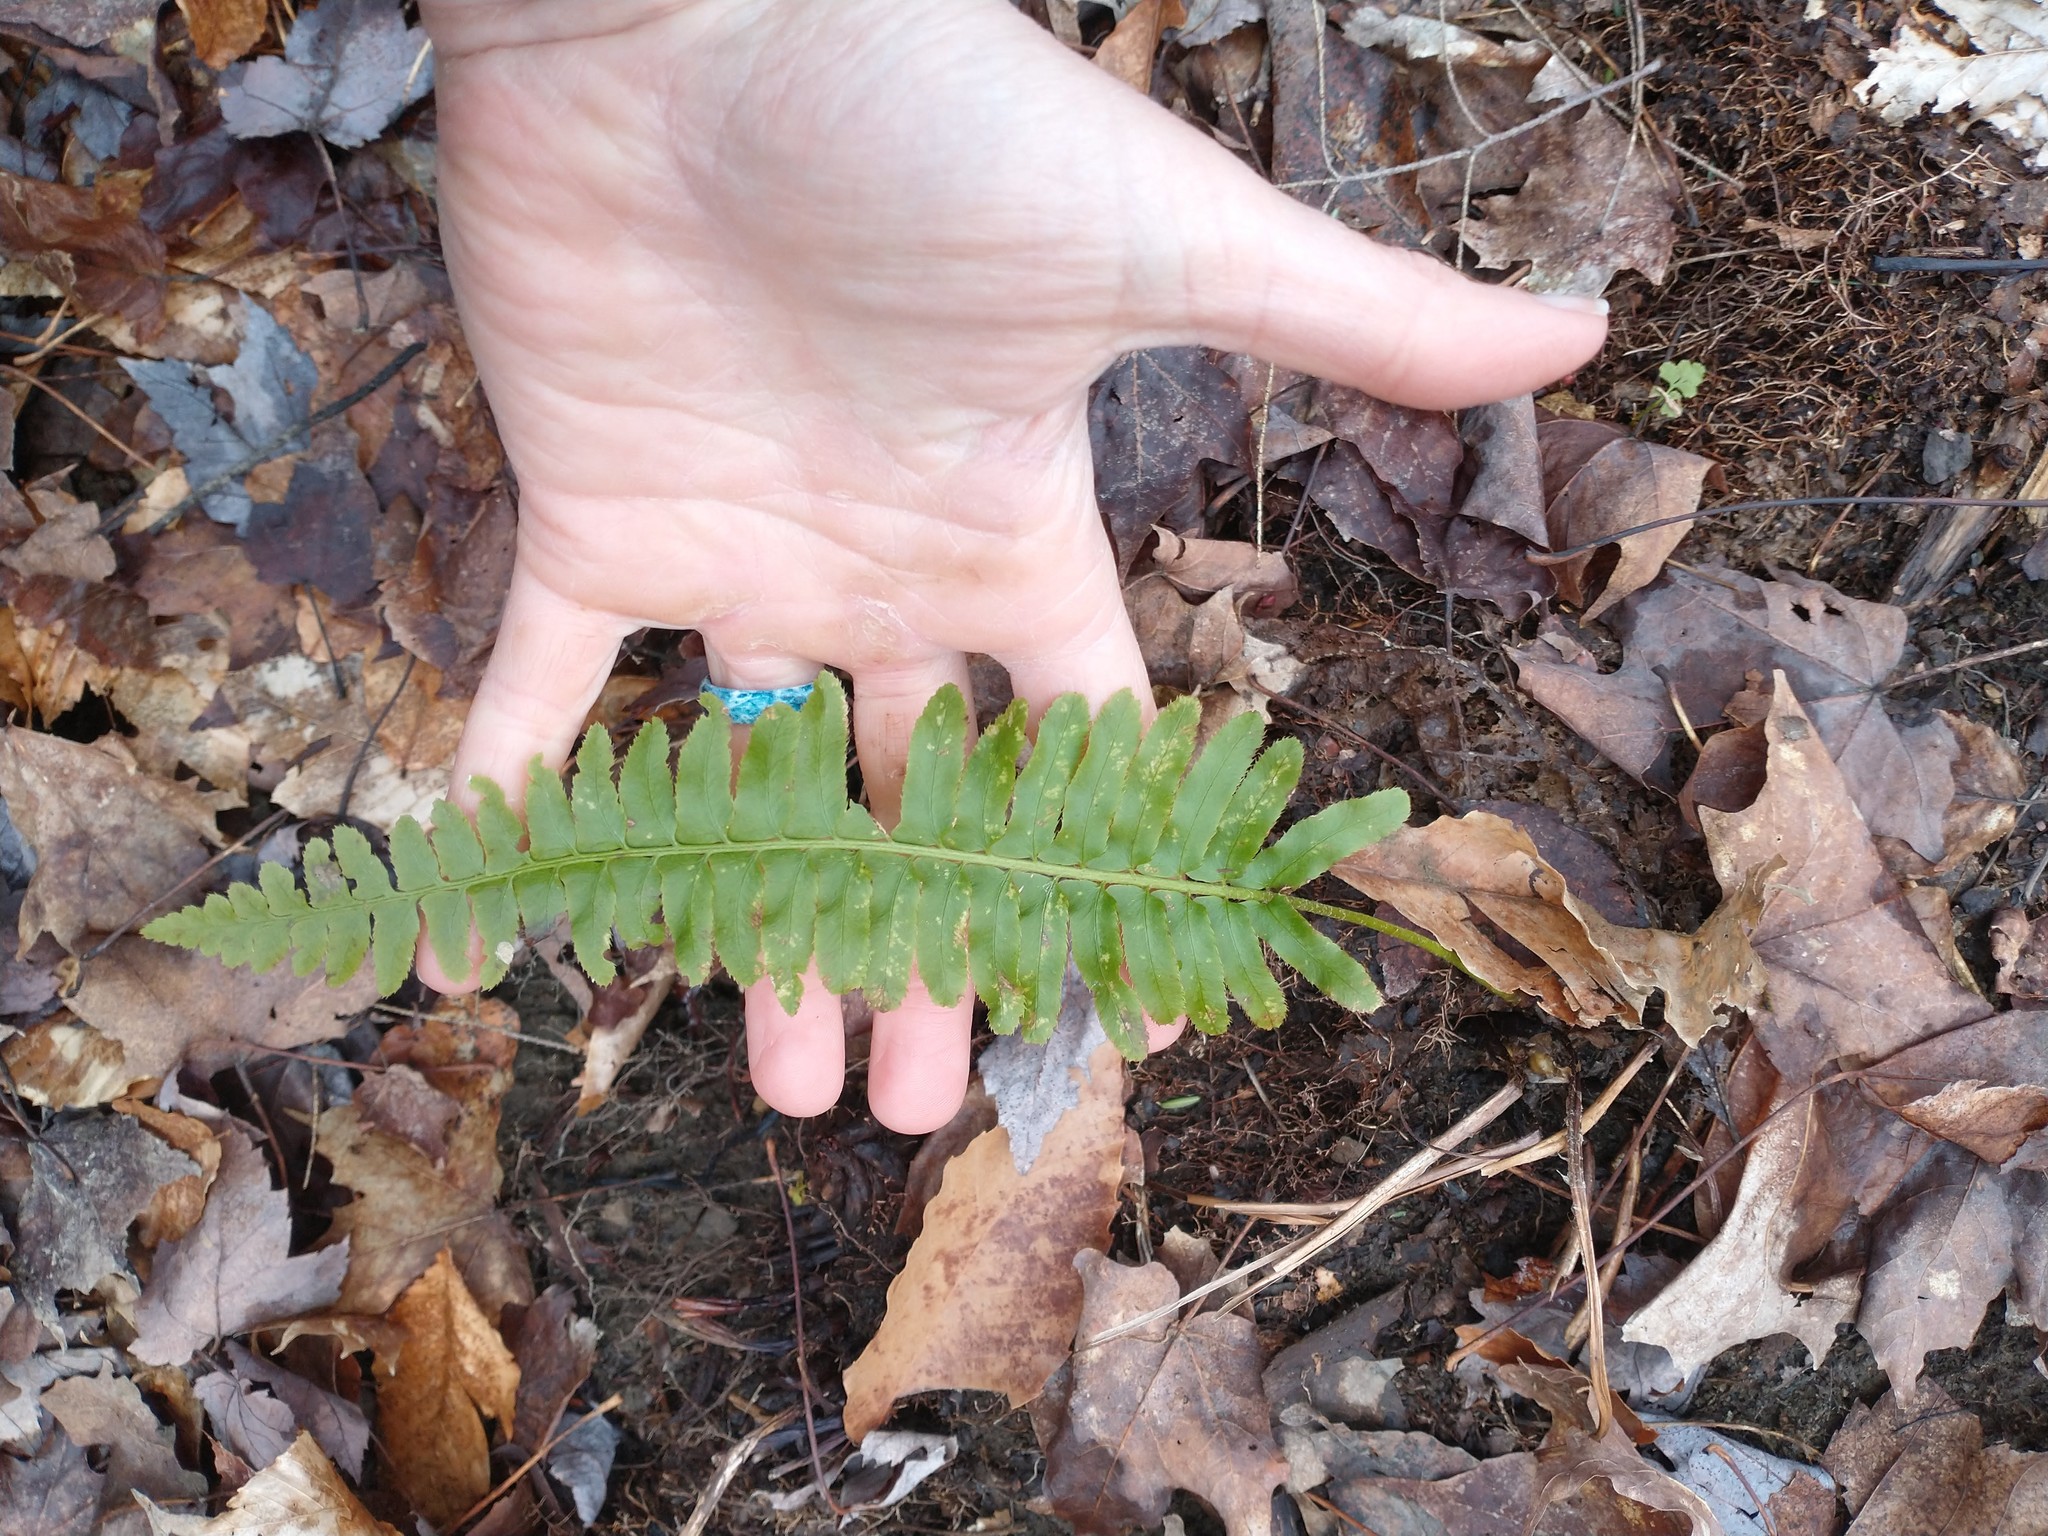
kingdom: Plantae
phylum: Tracheophyta
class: Polypodiopsida
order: Polypodiales
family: Dryopteridaceae
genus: Polystichum
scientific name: Polystichum acrostichoides
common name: Christmas fern
